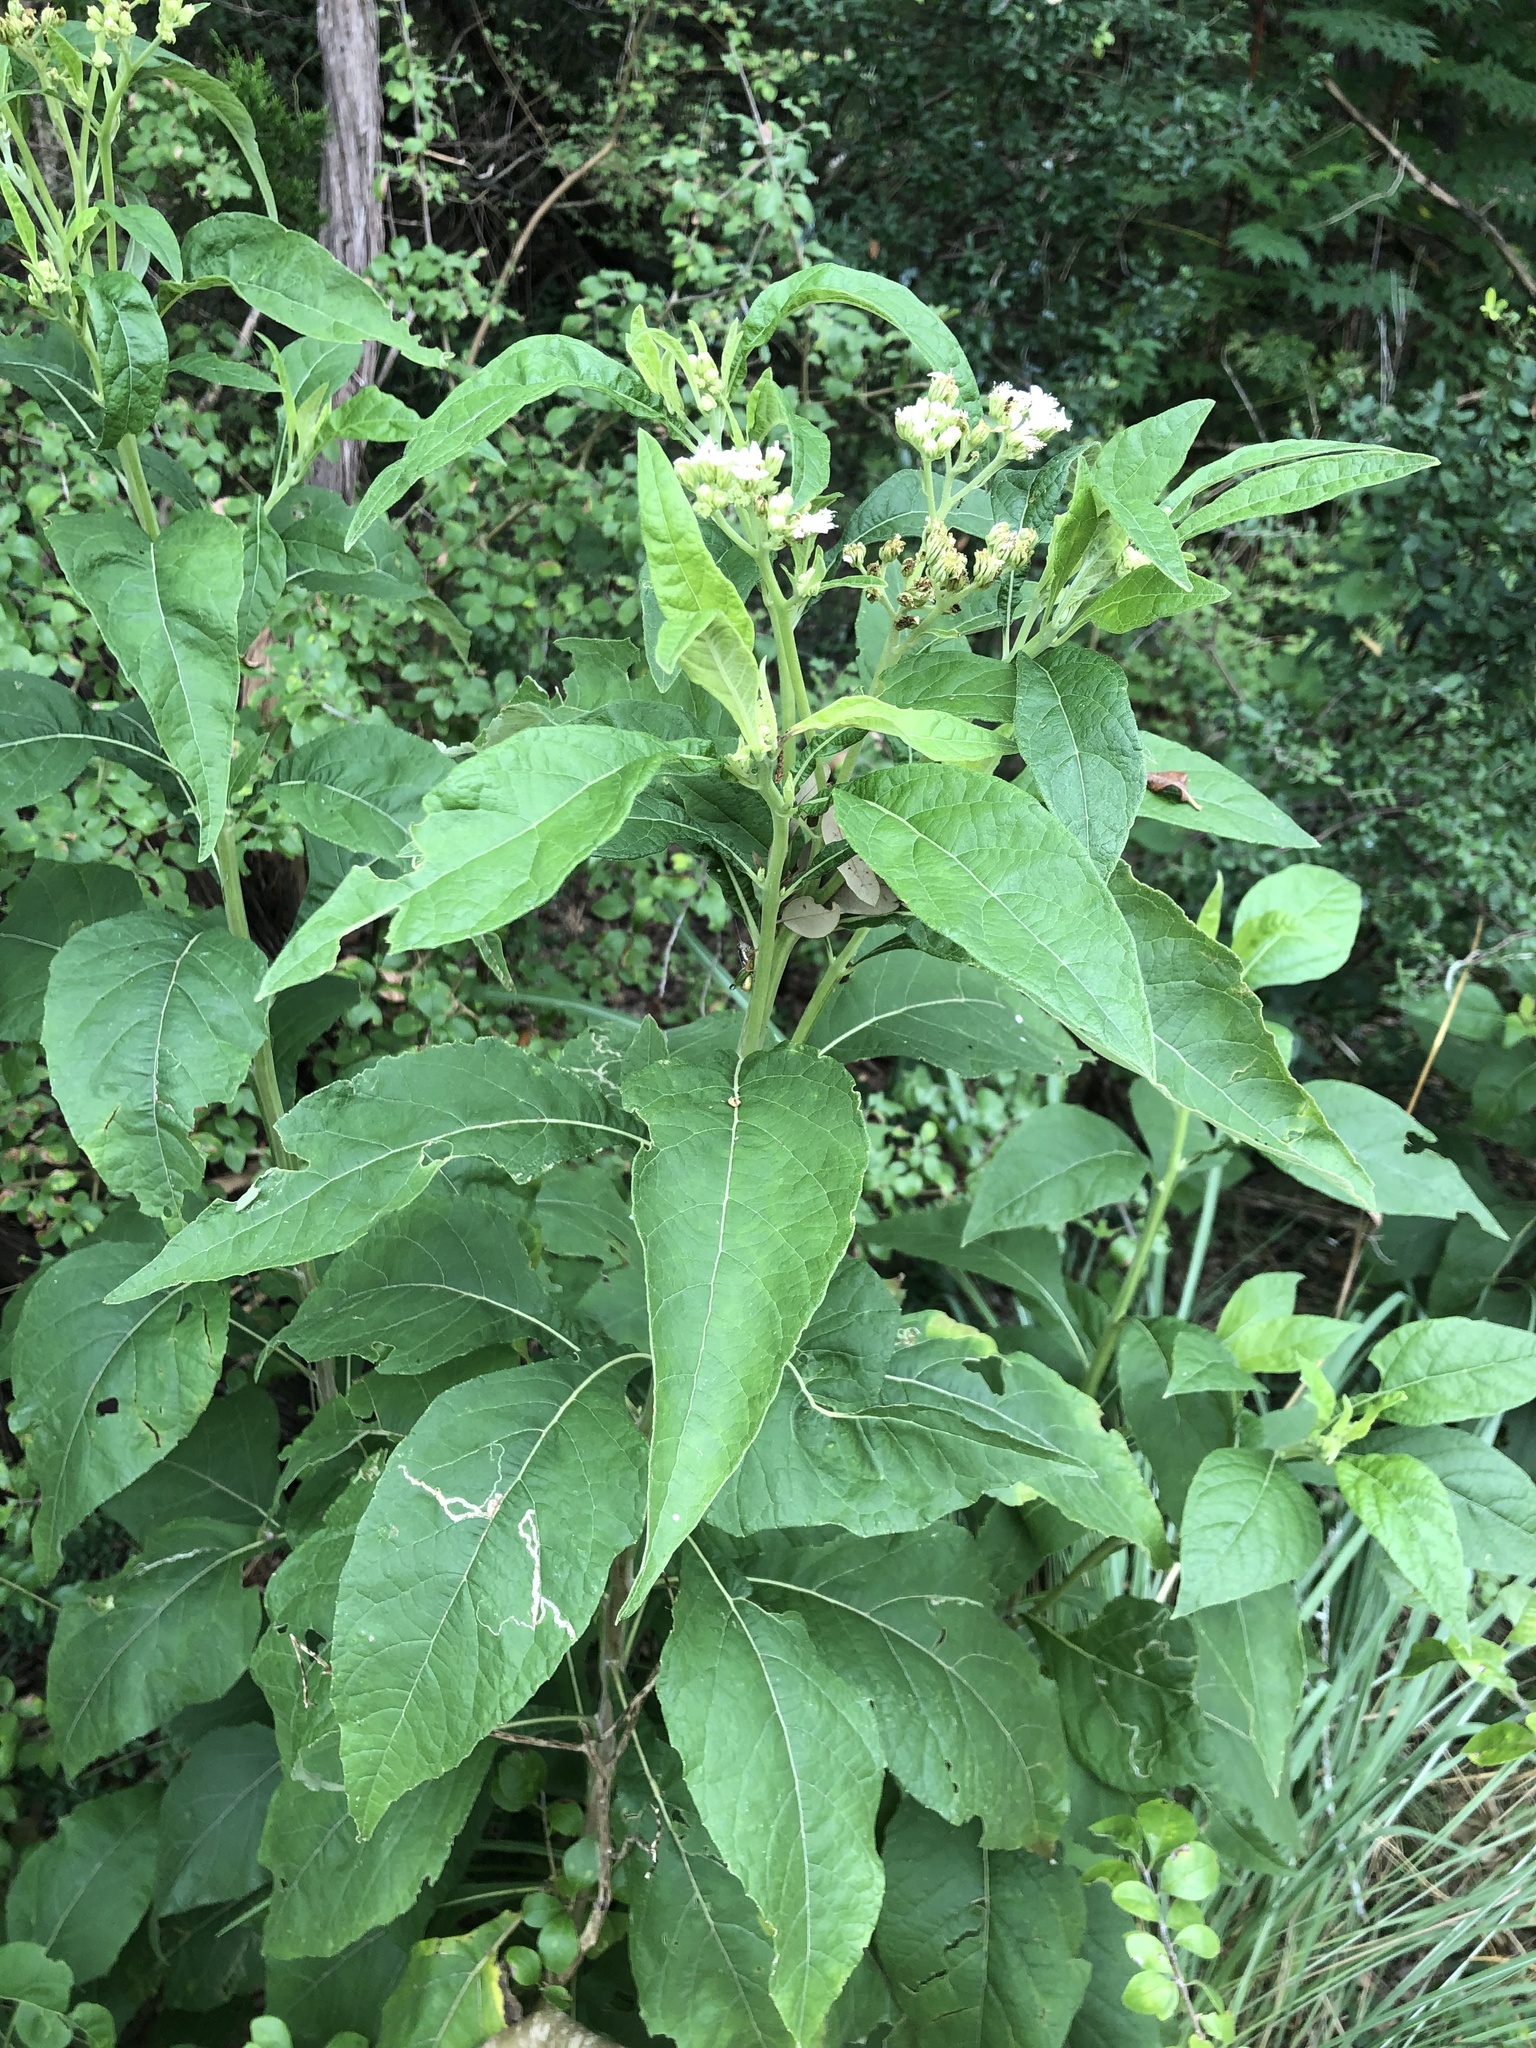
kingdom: Plantae
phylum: Tracheophyta
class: Magnoliopsida
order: Asterales
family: Asteraceae
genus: Verbesina
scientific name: Verbesina virginica
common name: Frostweed
